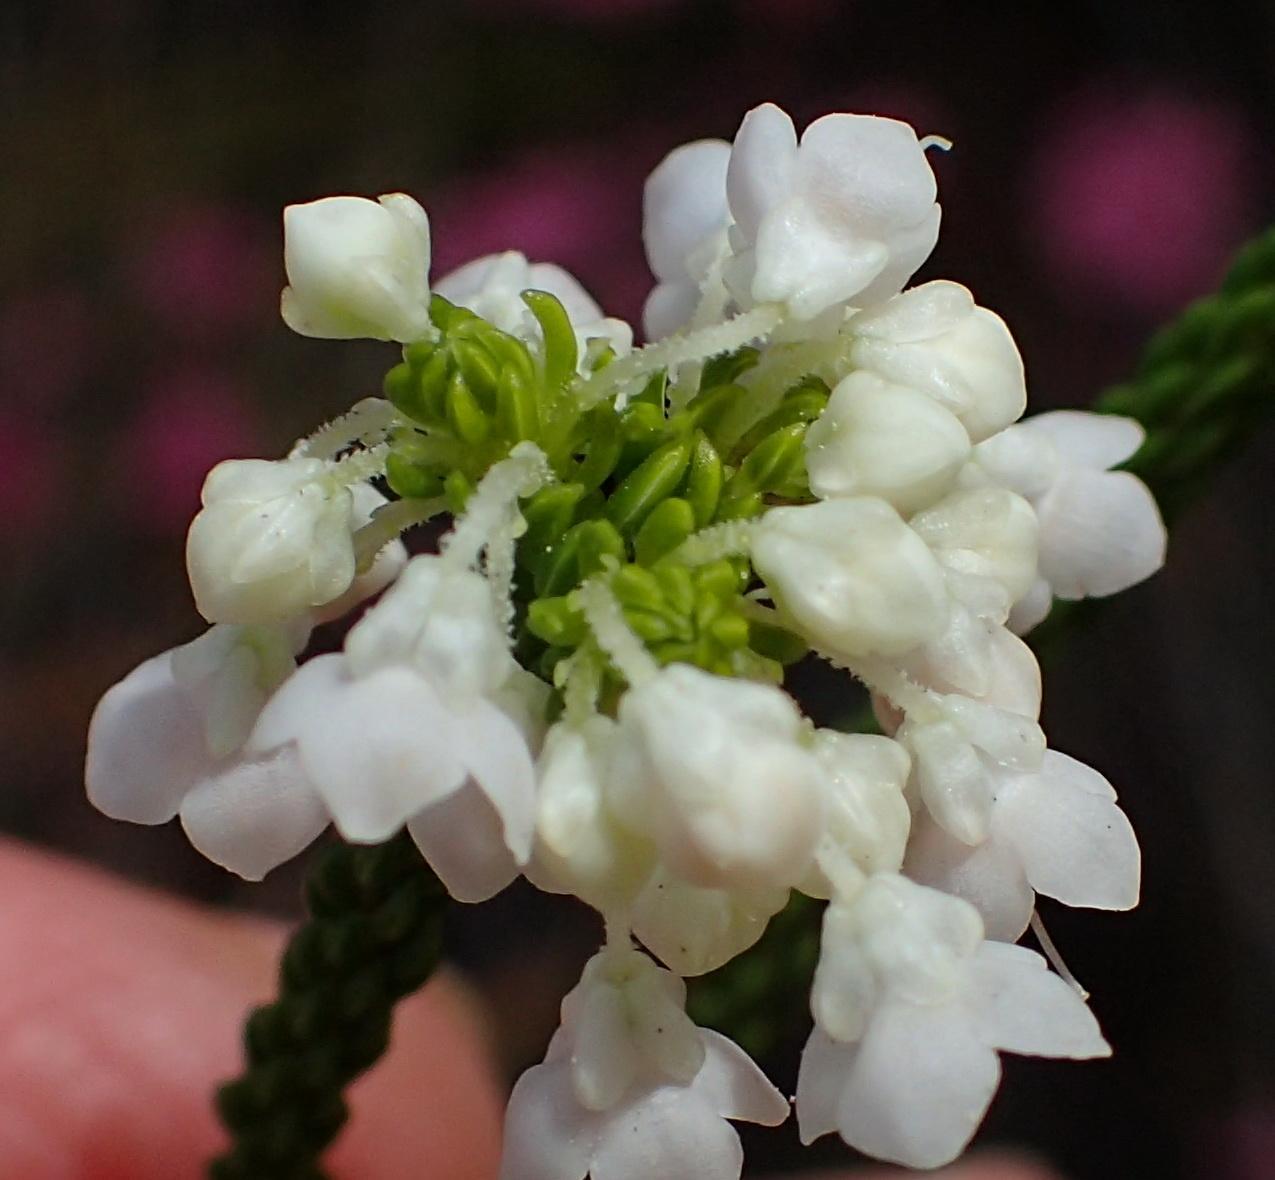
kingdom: Plantae
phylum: Tracheophyta
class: Magnoliopsida
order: Ericales
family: Ericaceae
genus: Erica
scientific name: Erica seriphiifolia
